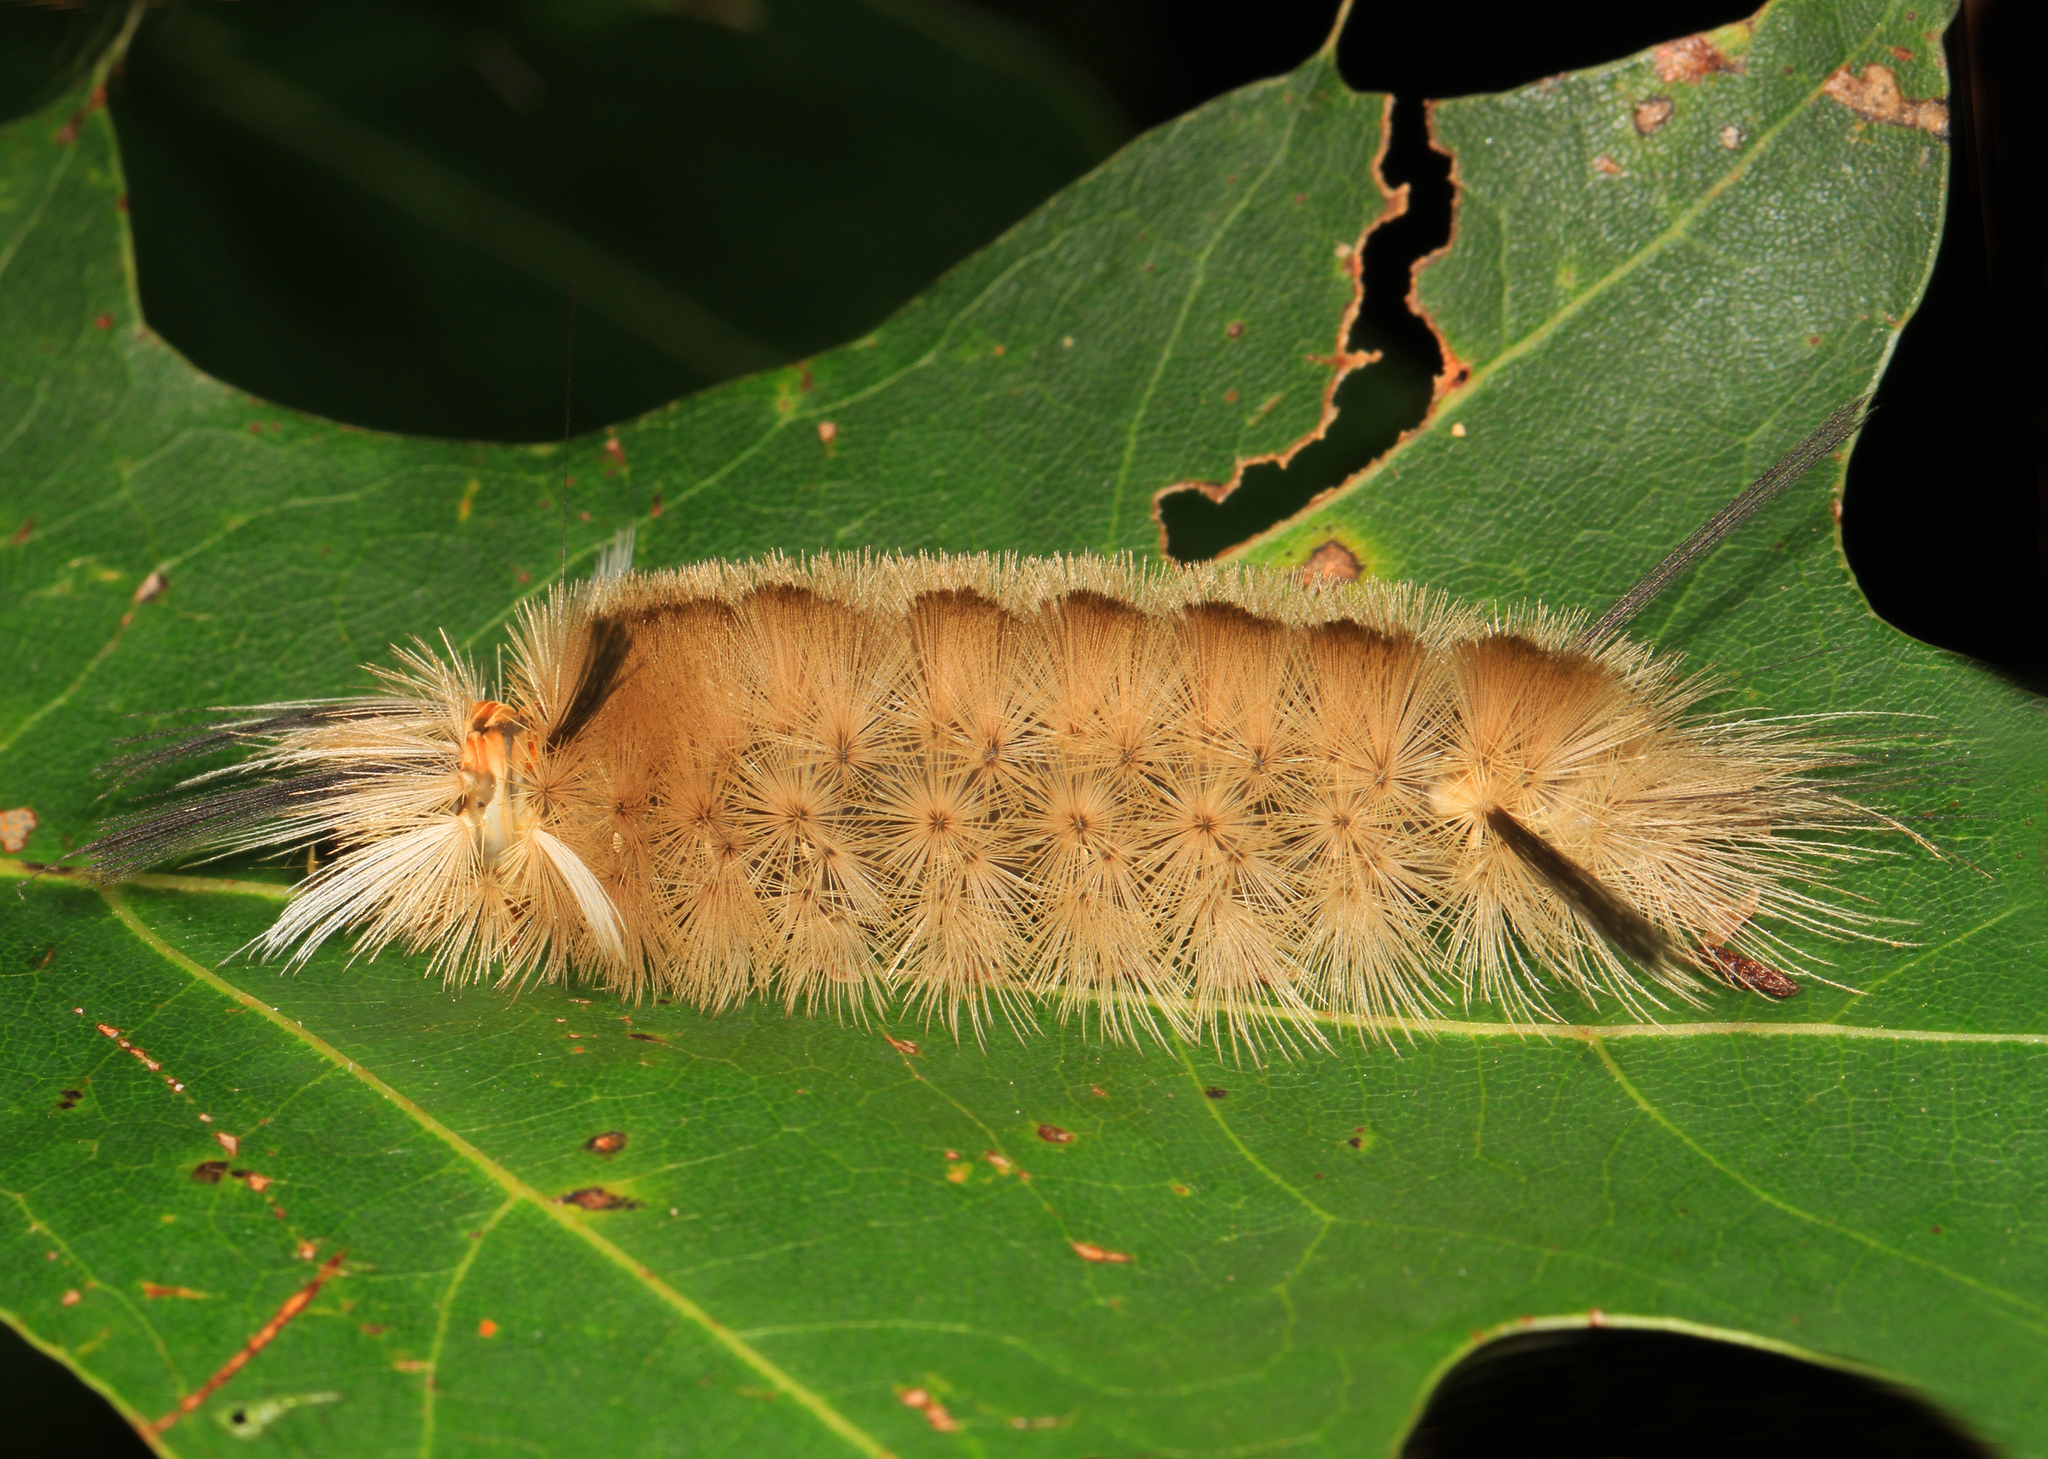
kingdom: Animalia
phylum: Arthropoda
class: Insecta
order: Lepidoptera
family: Erebidae
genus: Halysidota
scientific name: Halysidota tessellaris
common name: Banded tussock moth
